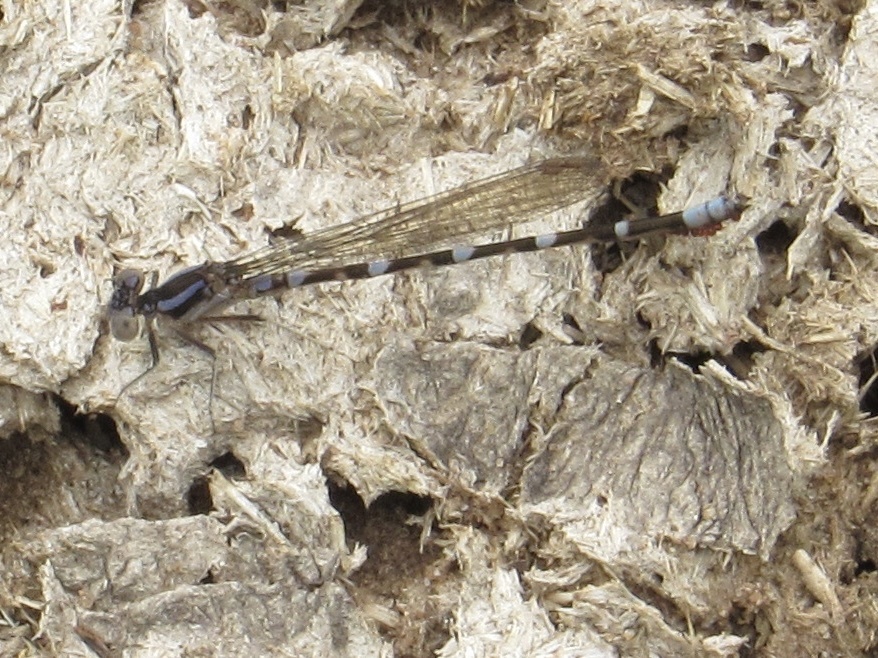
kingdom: Animalia
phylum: Arthropoda
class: Insecta
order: Odonata
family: Coenagrionidae
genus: Argia
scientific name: Argia sedula
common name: Blue-ringed dancer
